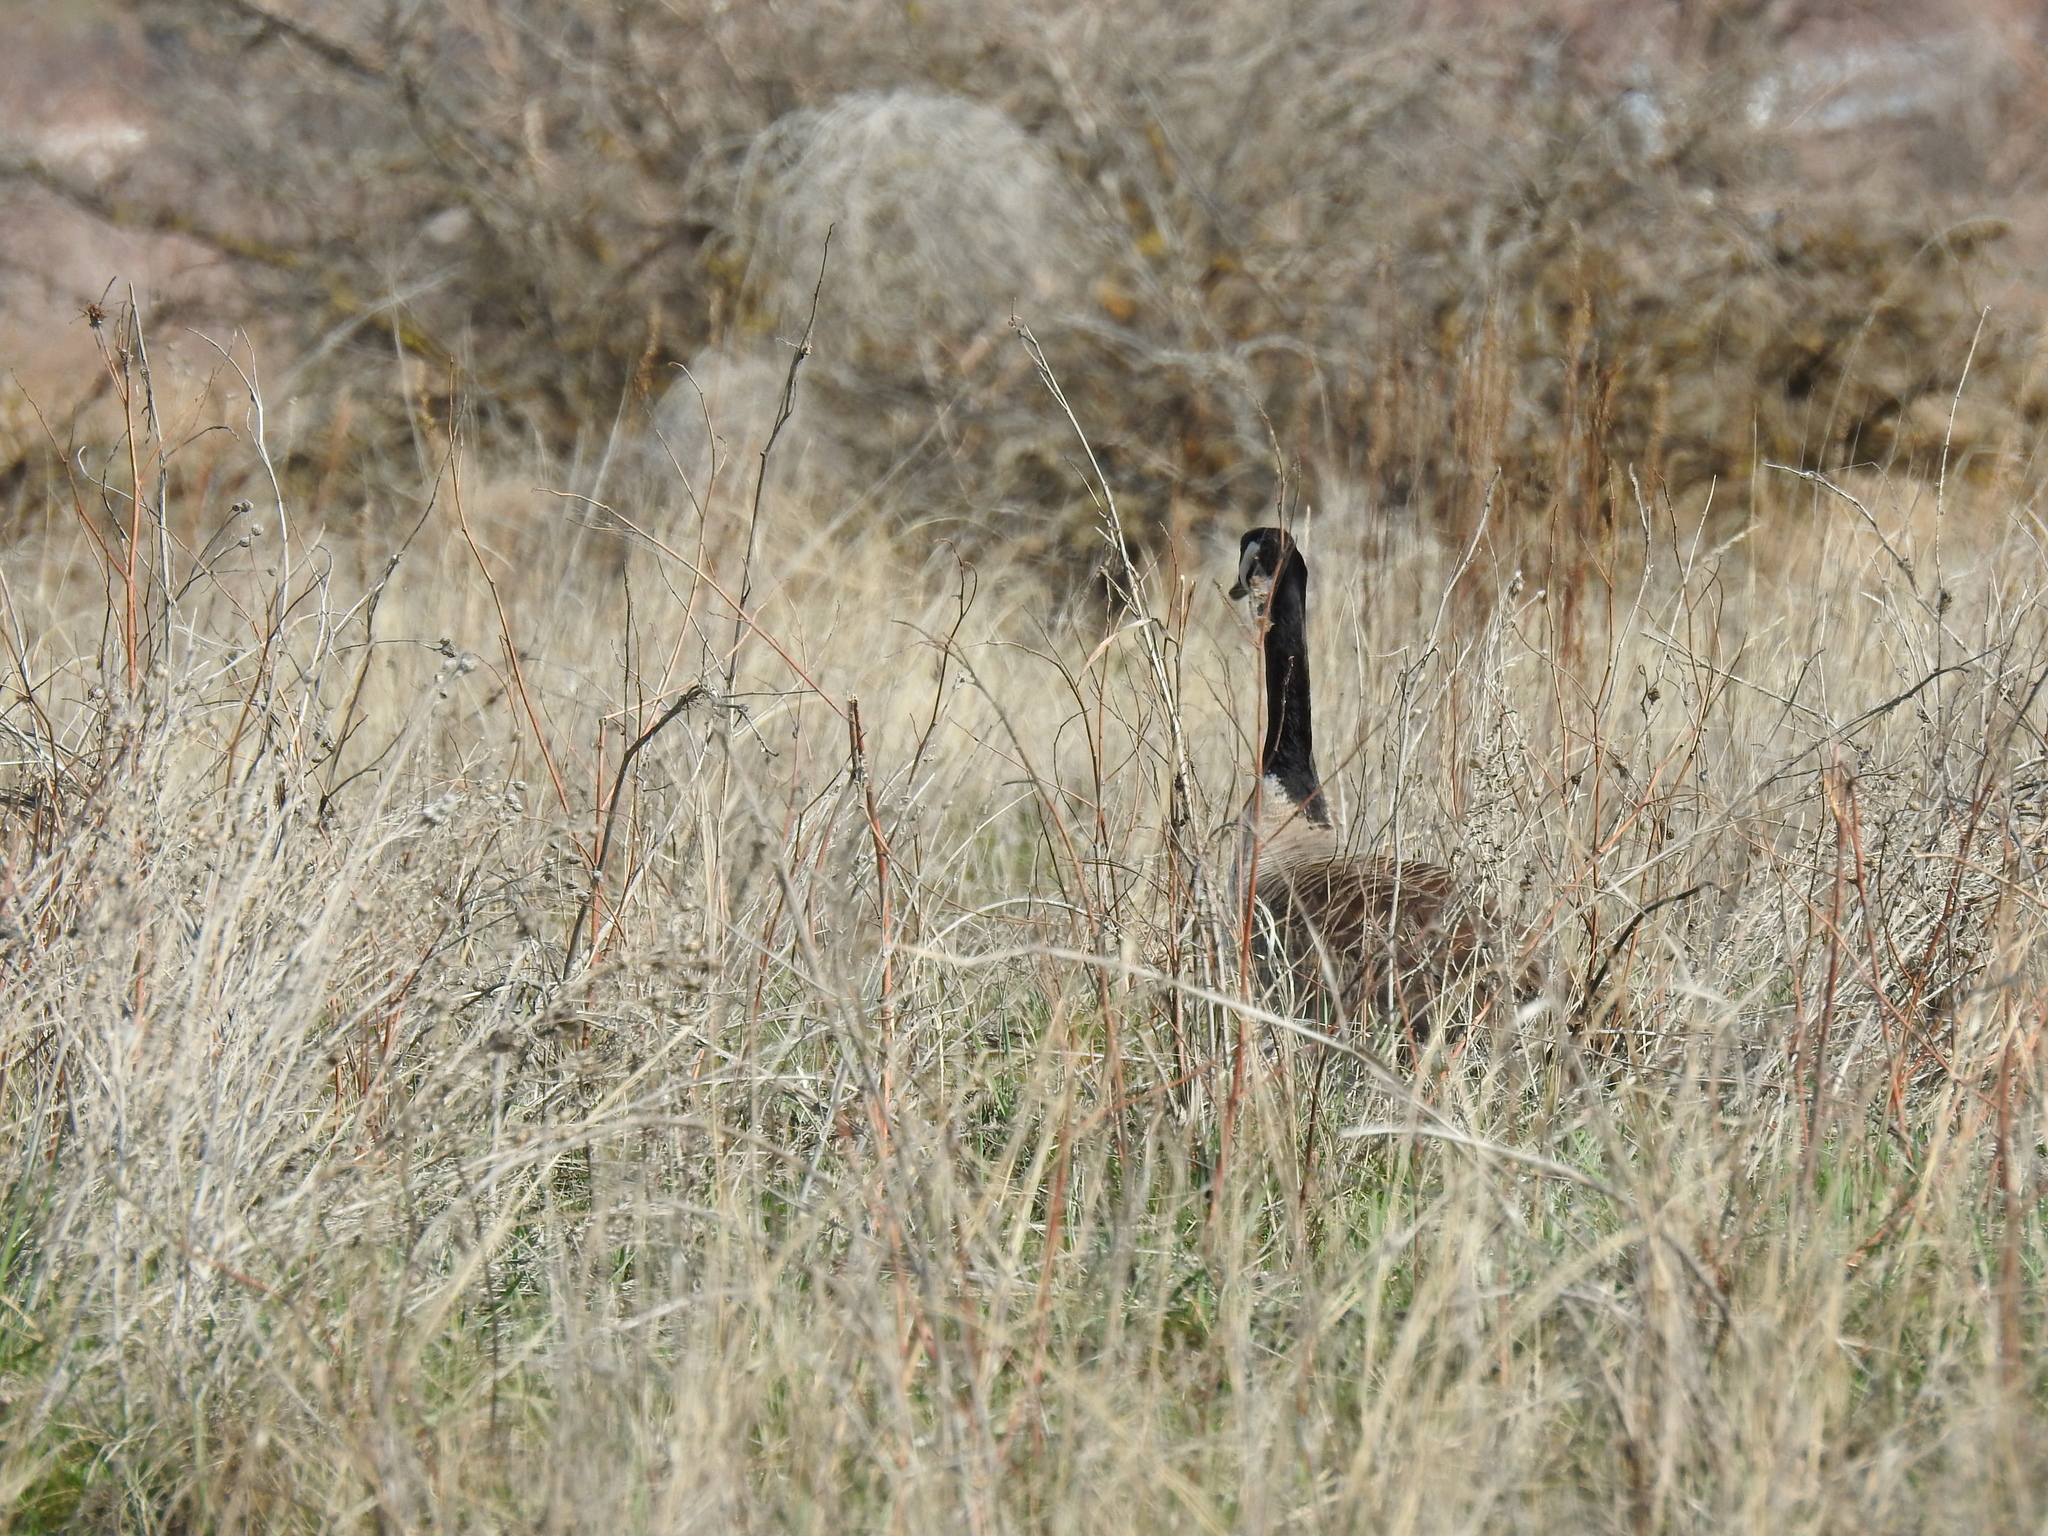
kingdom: Animalia
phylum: Chordata
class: Aves
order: Anseriformes
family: Anatidae
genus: Branta
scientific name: Branta canadensis
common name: Canada goose
